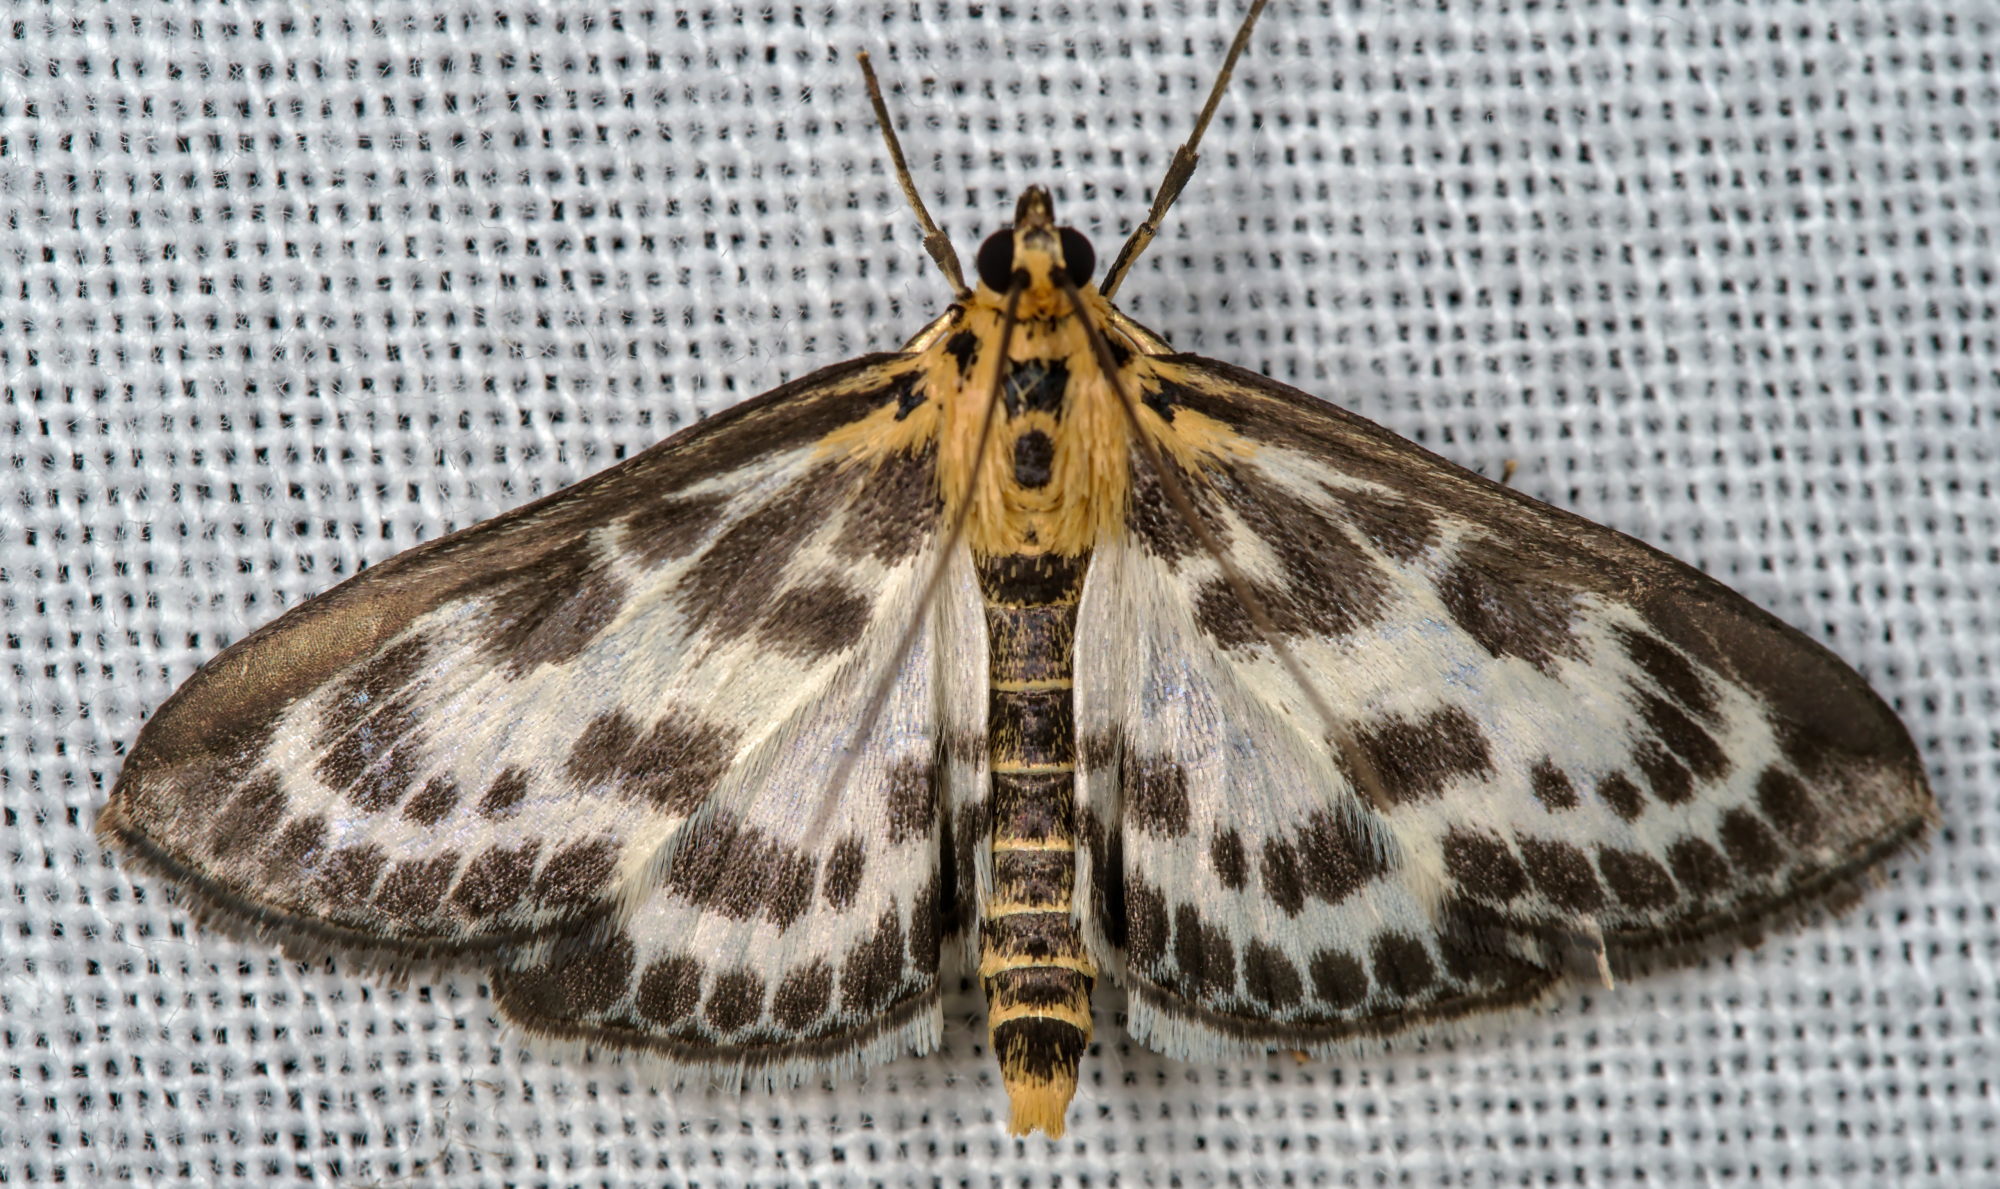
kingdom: Animalia
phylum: Arthropoda
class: Insecta
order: Lepidoptera
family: Crambidae
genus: Anania
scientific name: Anania hortulata
